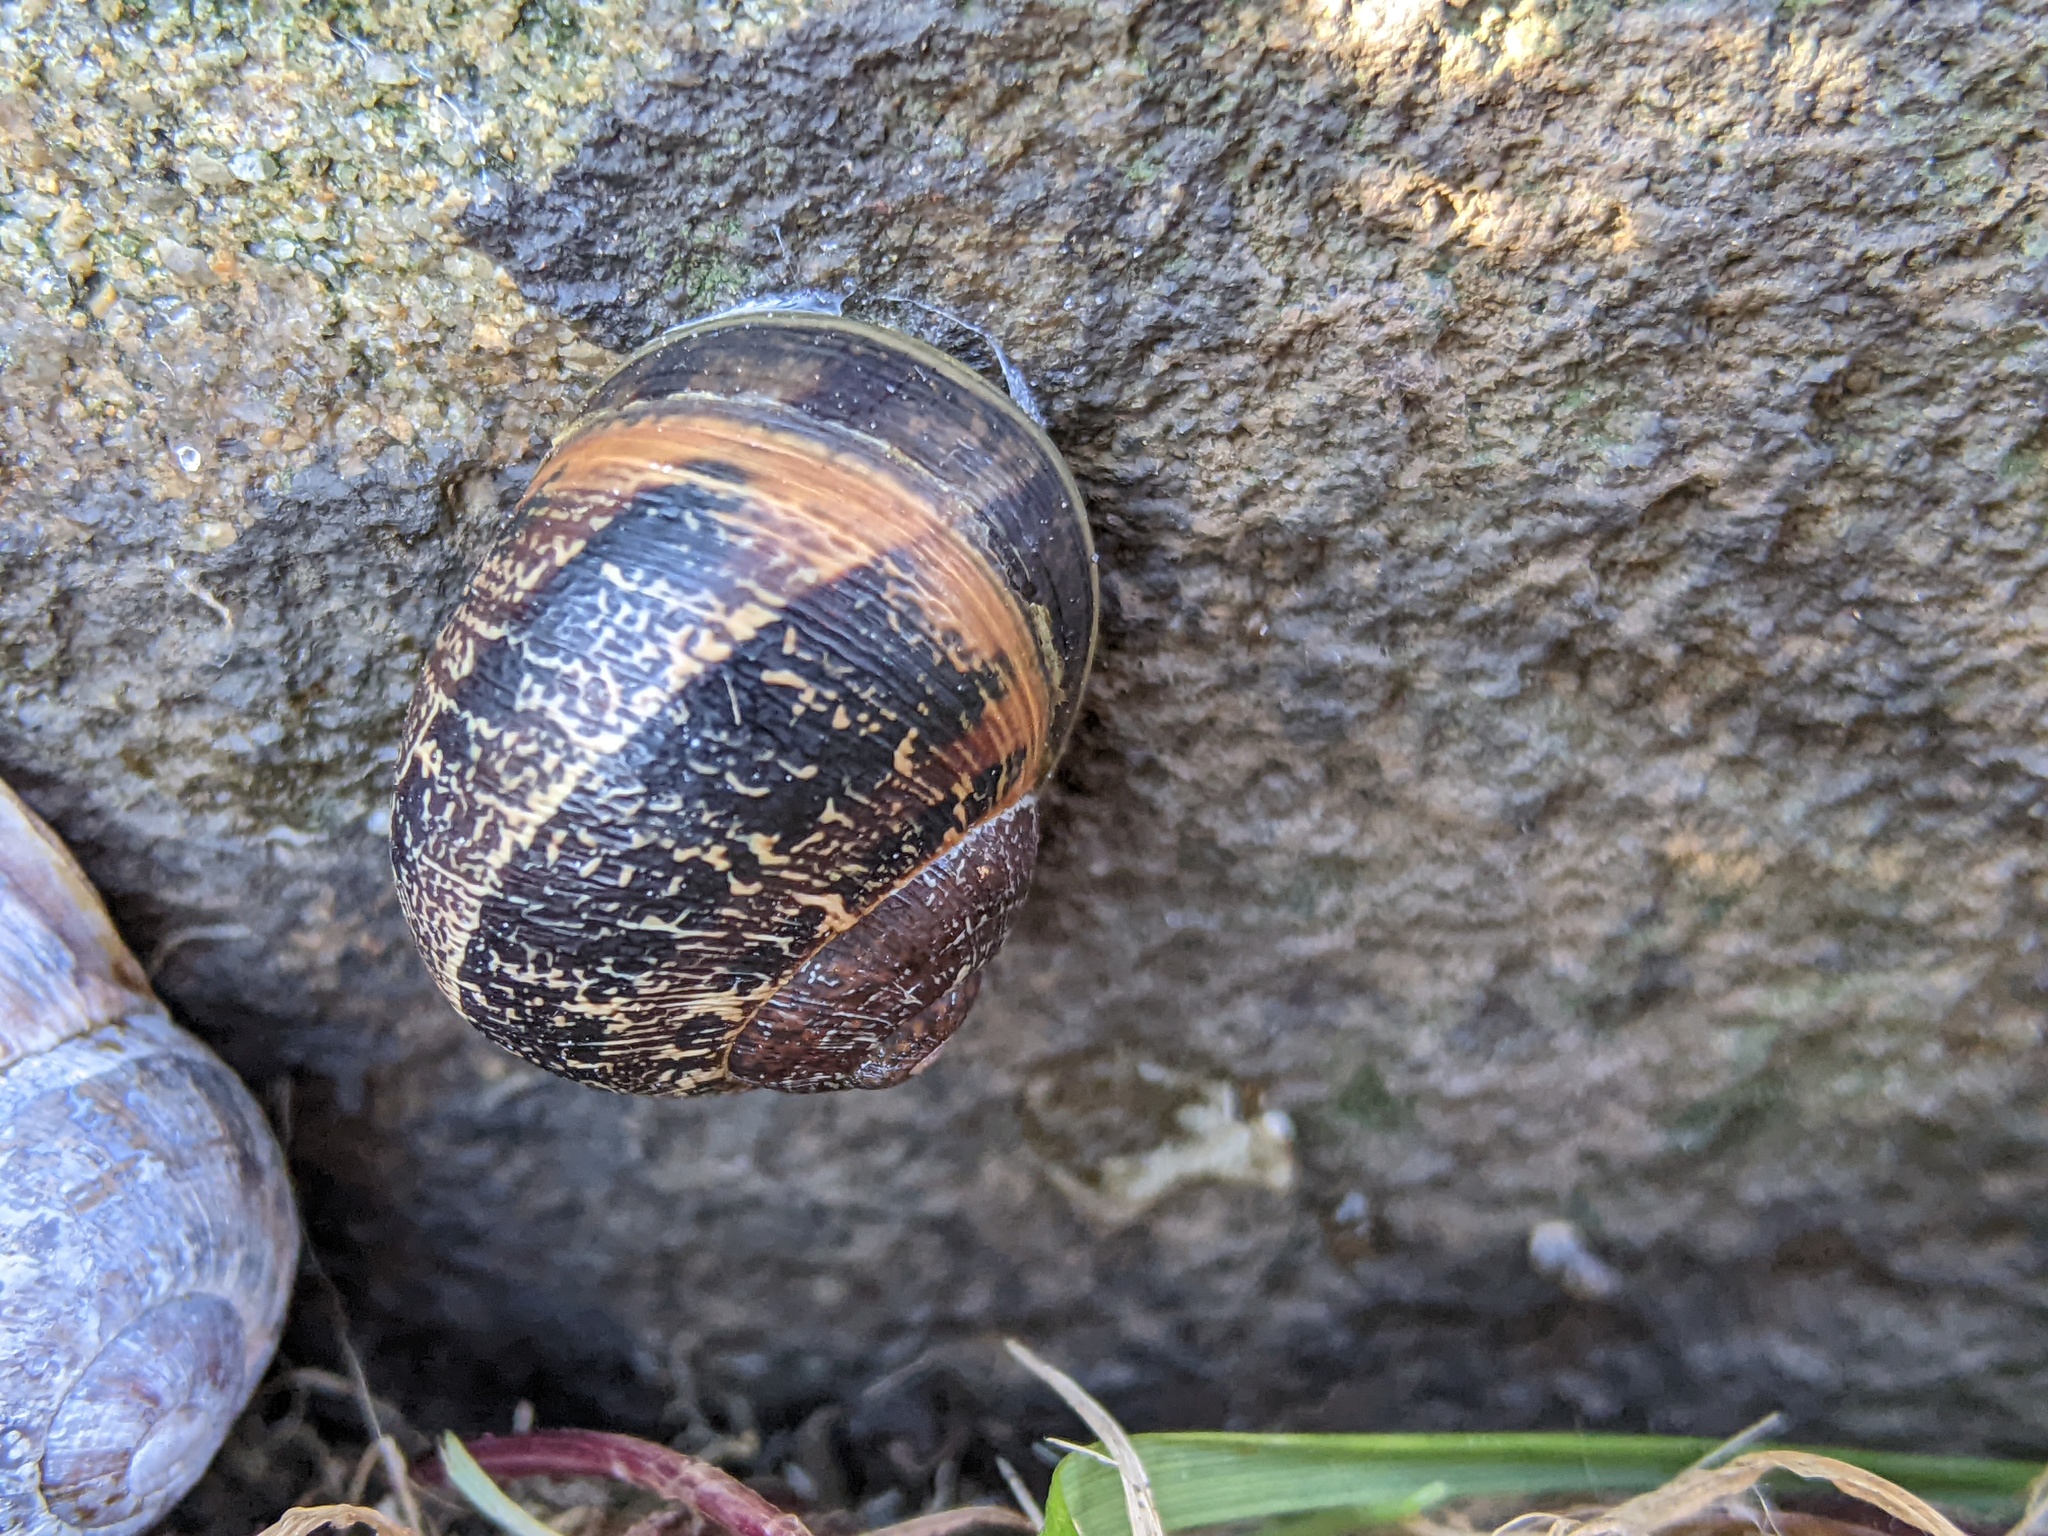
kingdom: Animalia
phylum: Mollusca
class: Gastropoda
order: Stylommatophora
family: Helicidae
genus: Cornu
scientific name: Cornu aspersum
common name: Brown garden snail
